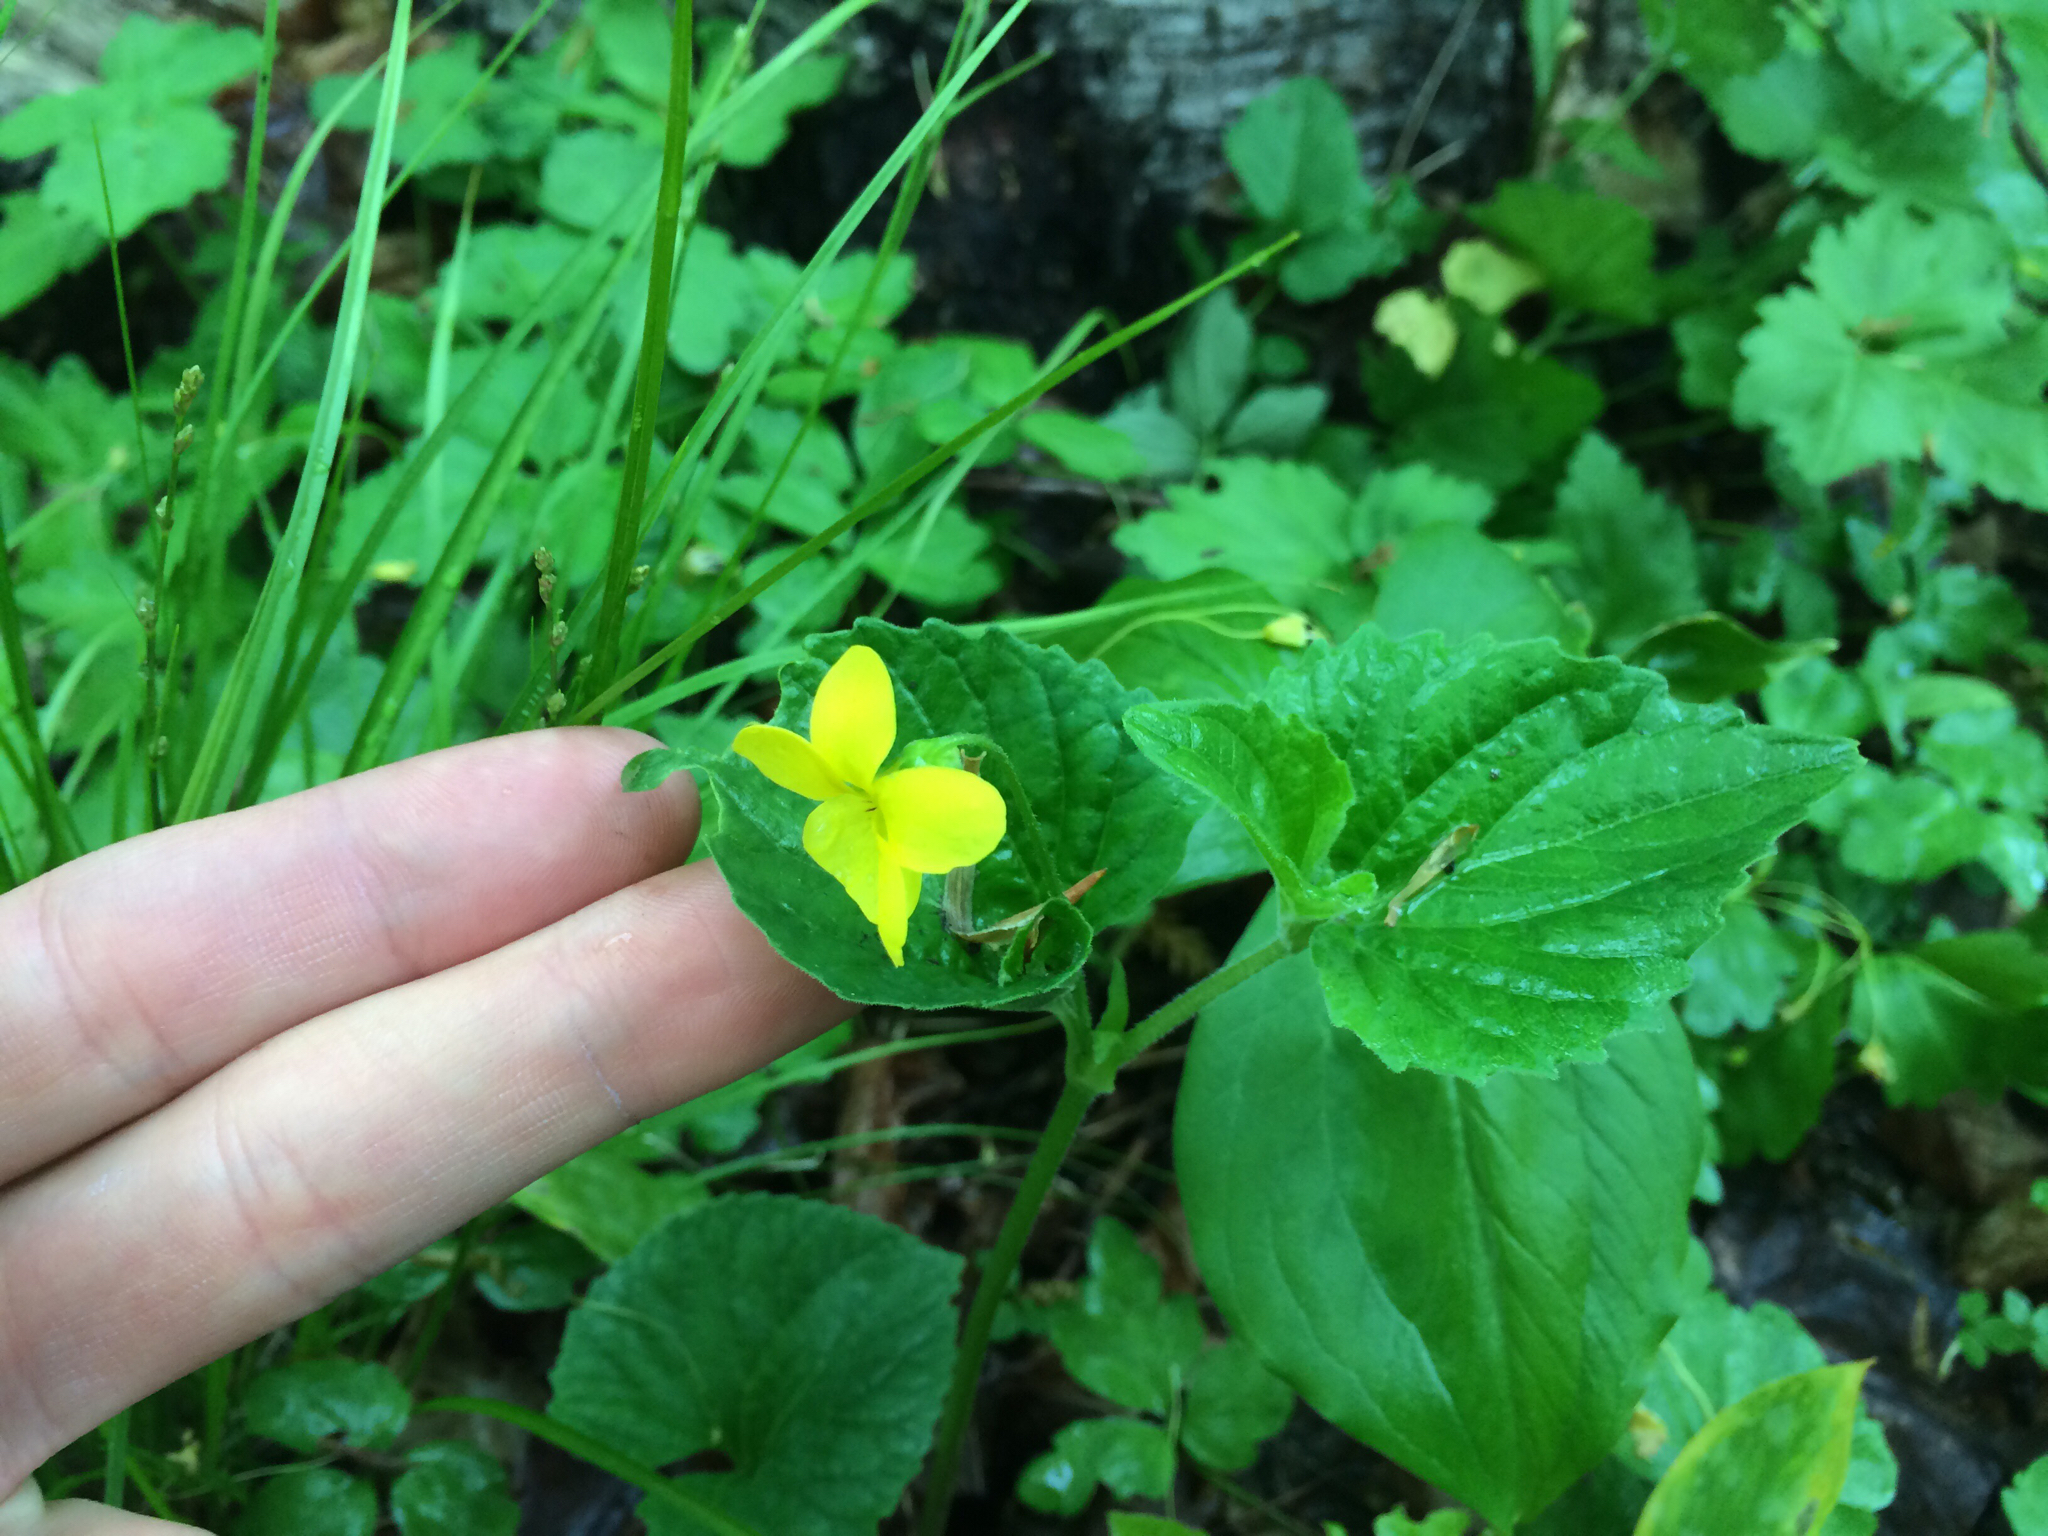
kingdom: Plantae
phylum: Tracheophyta
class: Magnoliopsida
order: Malpighiales
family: Violaceae
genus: Viola
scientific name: Viola eriocarpa
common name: Smooth yellow violet
